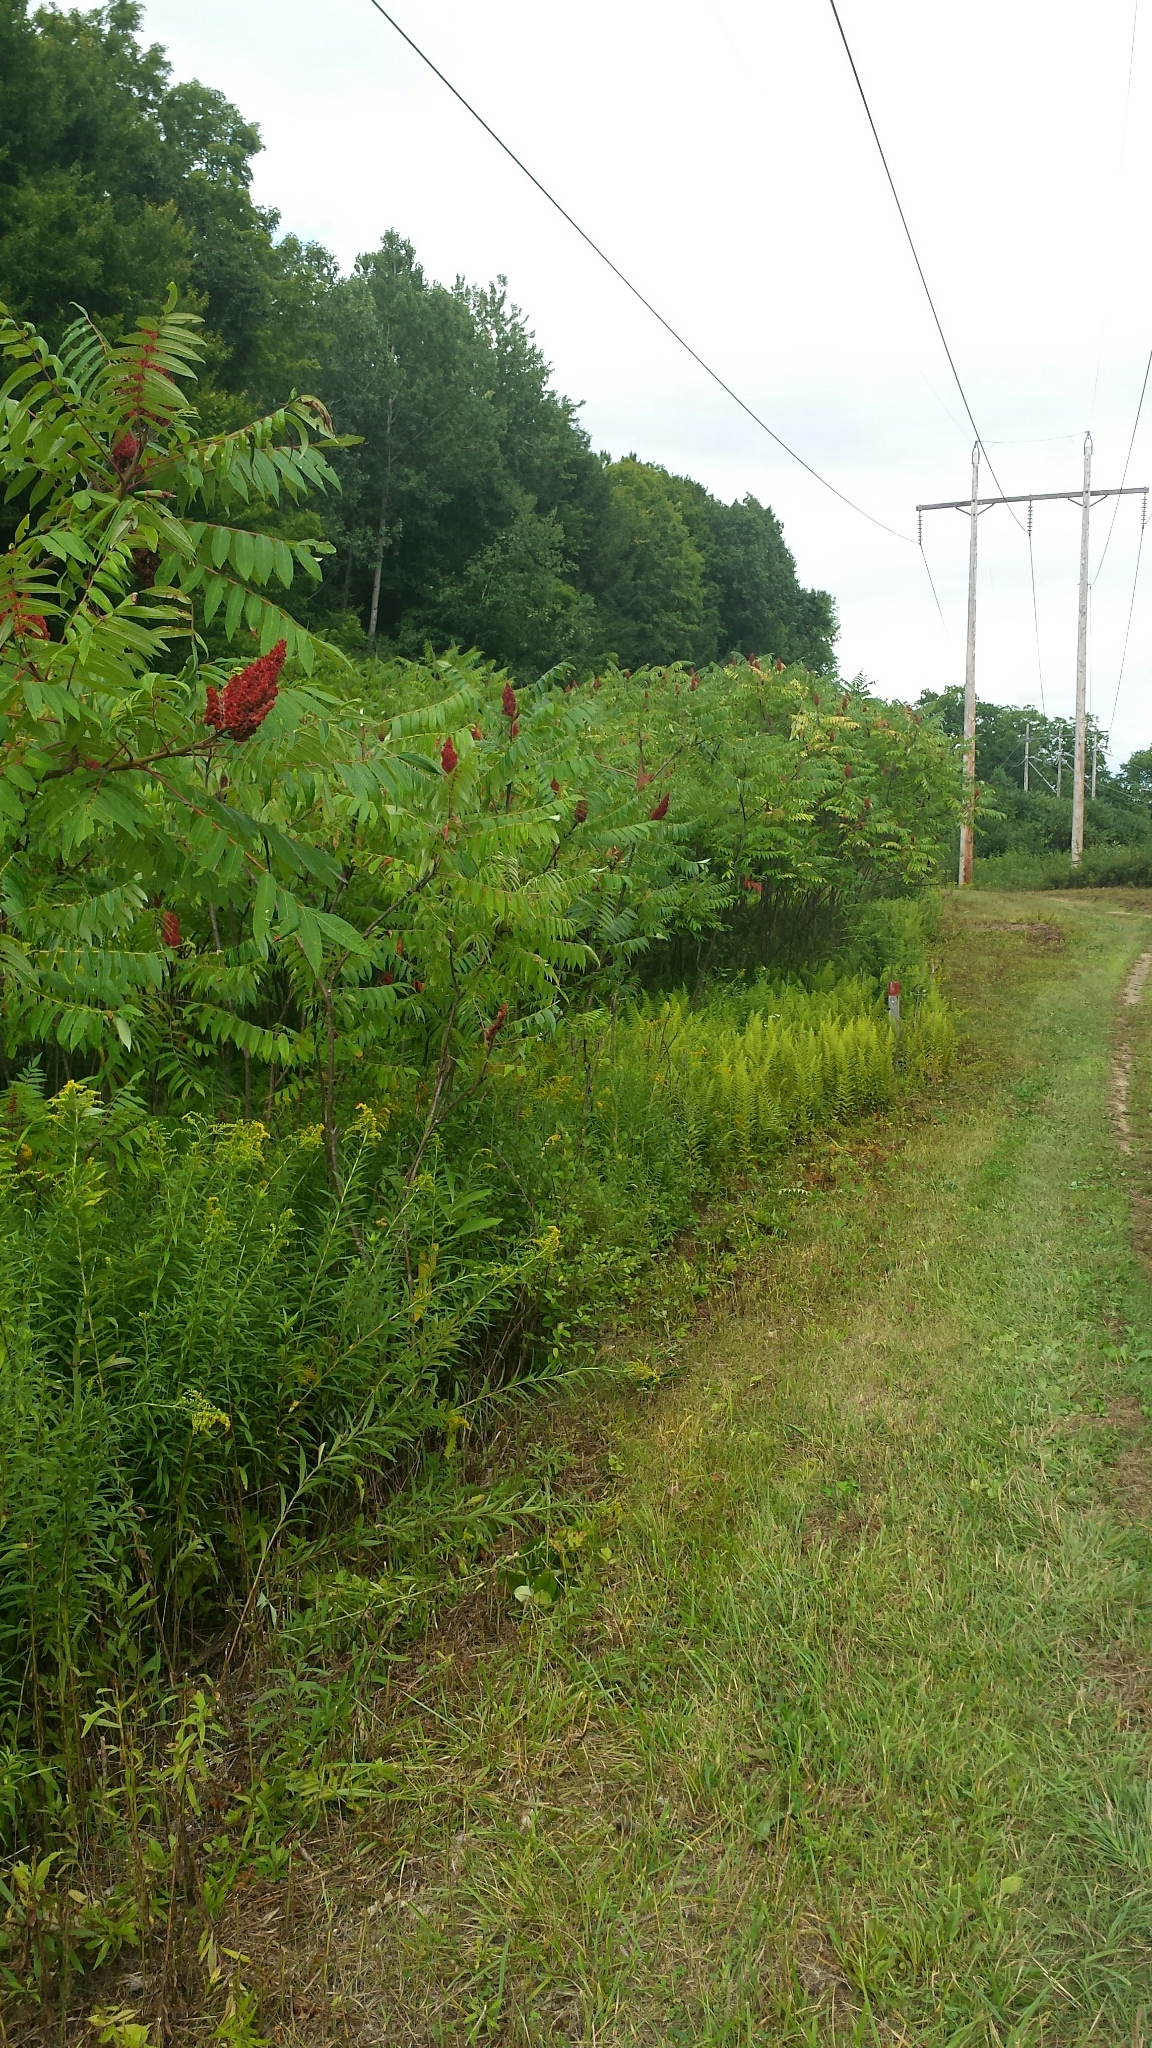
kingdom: Plantae
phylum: Tracheophyta
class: Magnoliopsida
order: Sapindales
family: Anacardiaceae
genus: Rhus
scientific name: Rhus typhina
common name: Staghorn sumac
